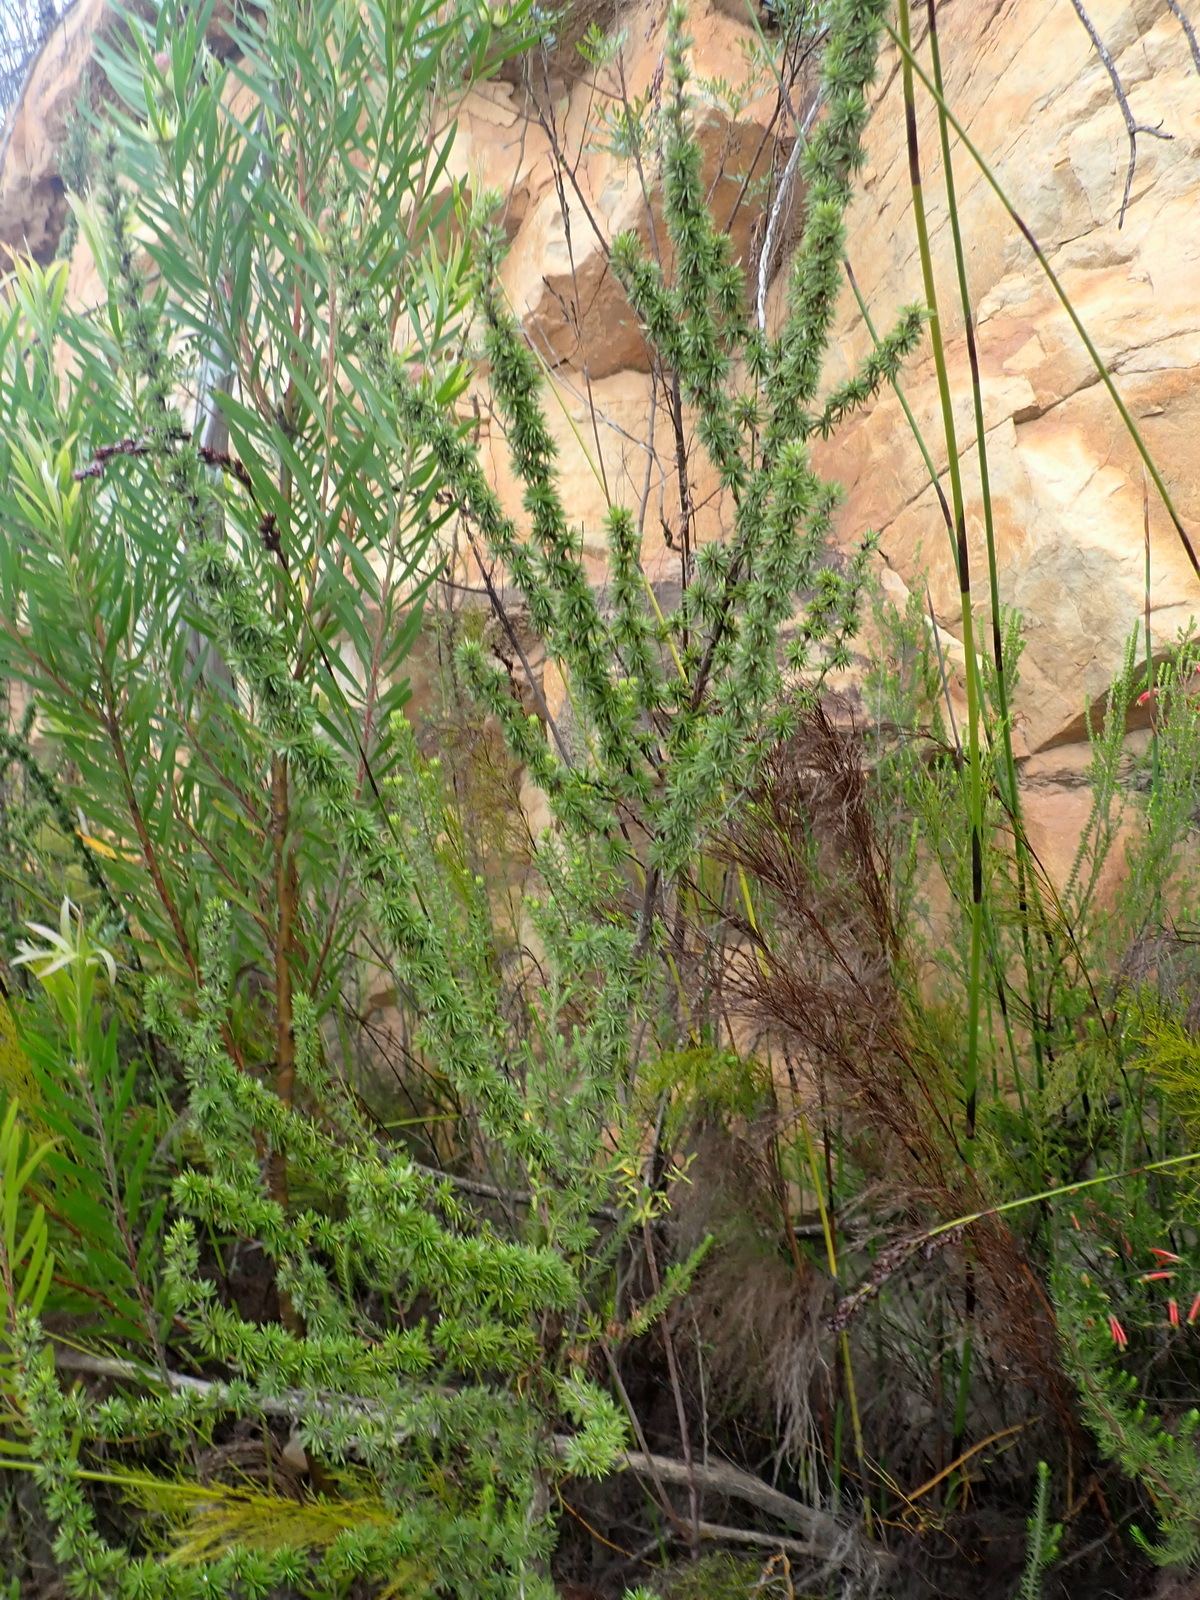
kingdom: Plantae
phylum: Tracheophyta
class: Magnoliopsida
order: Rosales
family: Rosaceae
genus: Cliffortia
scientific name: Cliffortia stricta
